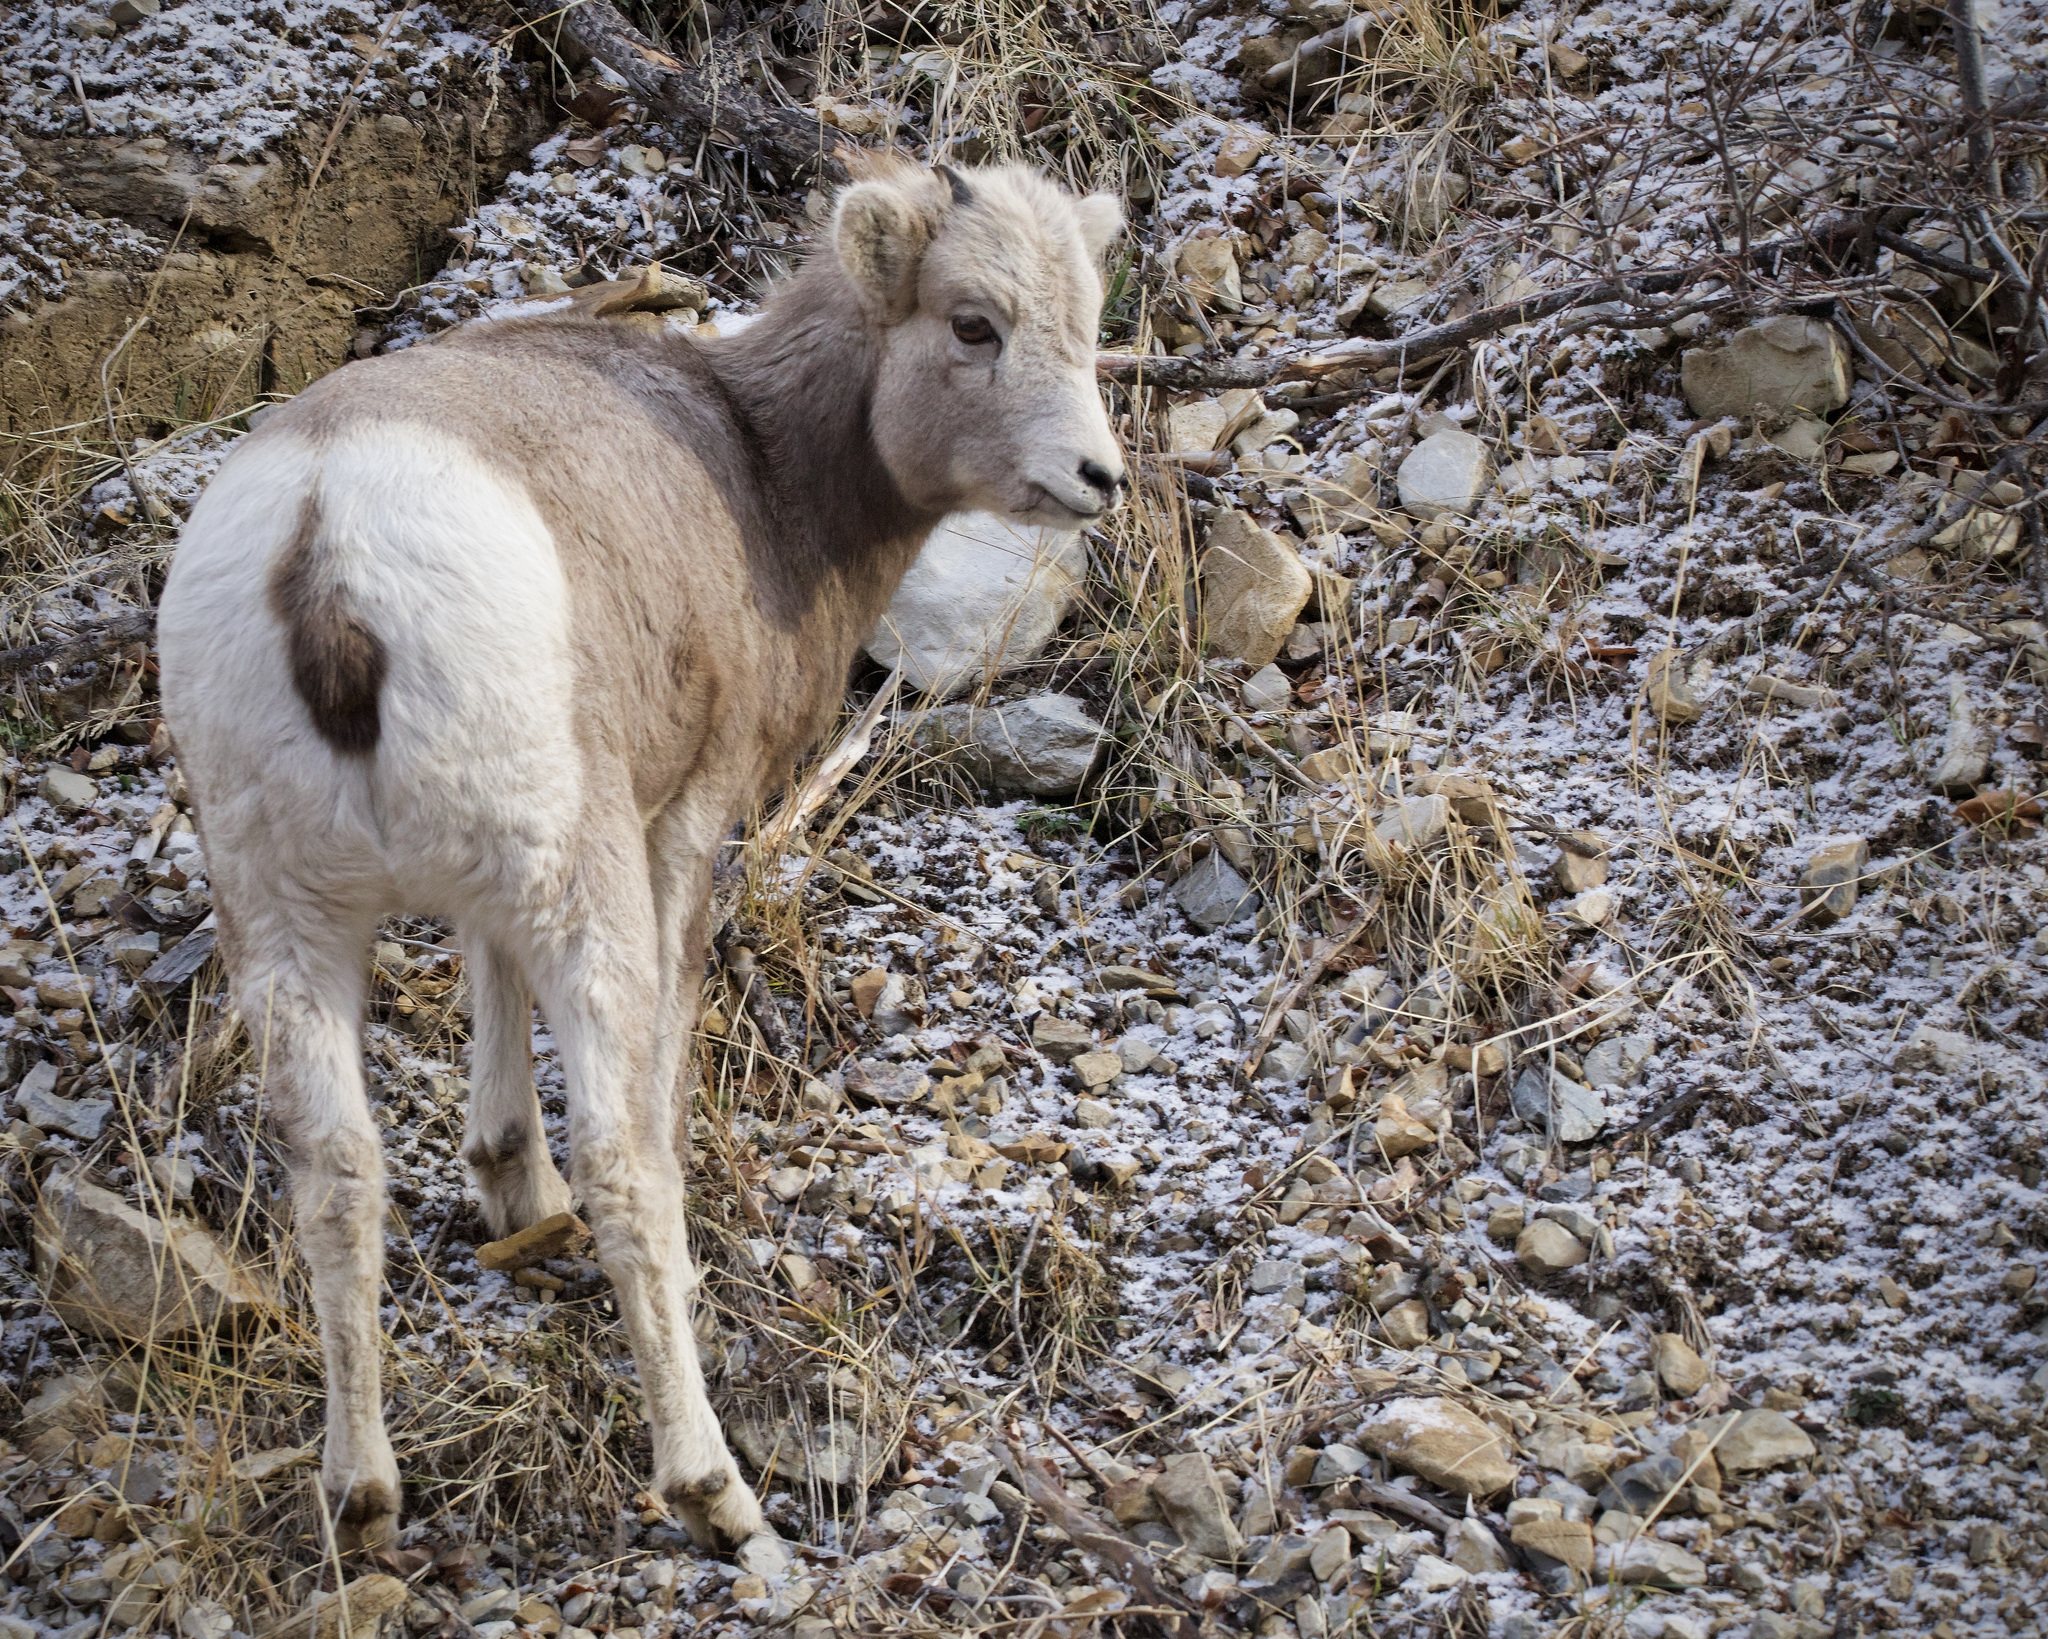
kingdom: Animalia
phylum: Chordata
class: Mammalia
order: Artiodactyla
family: Bovidae
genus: Ovis
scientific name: Ovis canadensis
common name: Bighorn sheep
